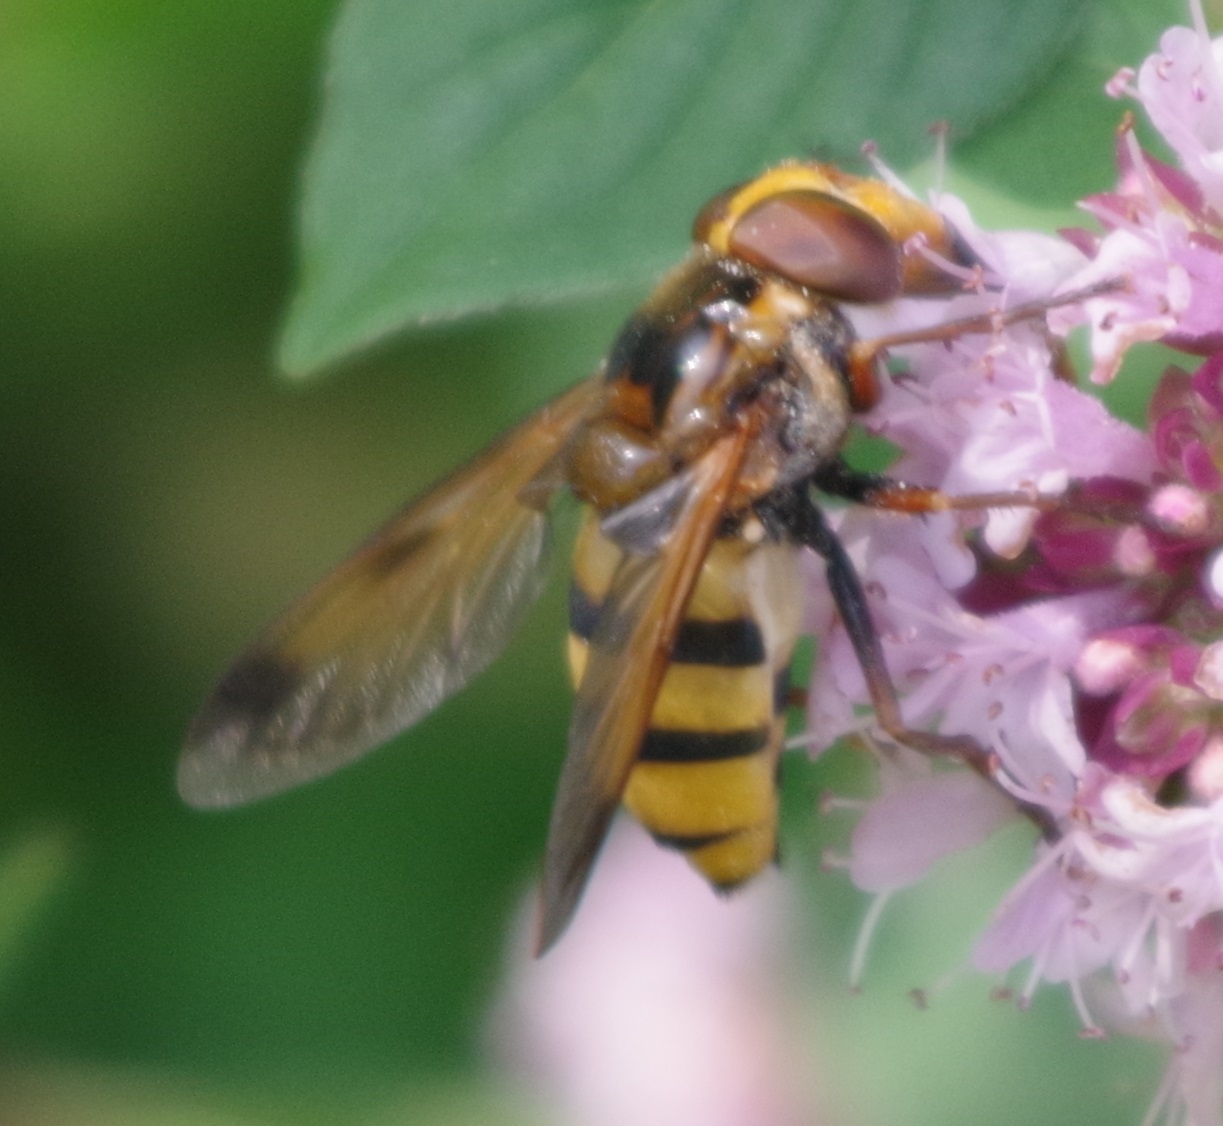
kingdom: Animalia
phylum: Arthropoda
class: Insecta
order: Diptera
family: Syrphidae
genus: Volucella
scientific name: Volucella inanis
